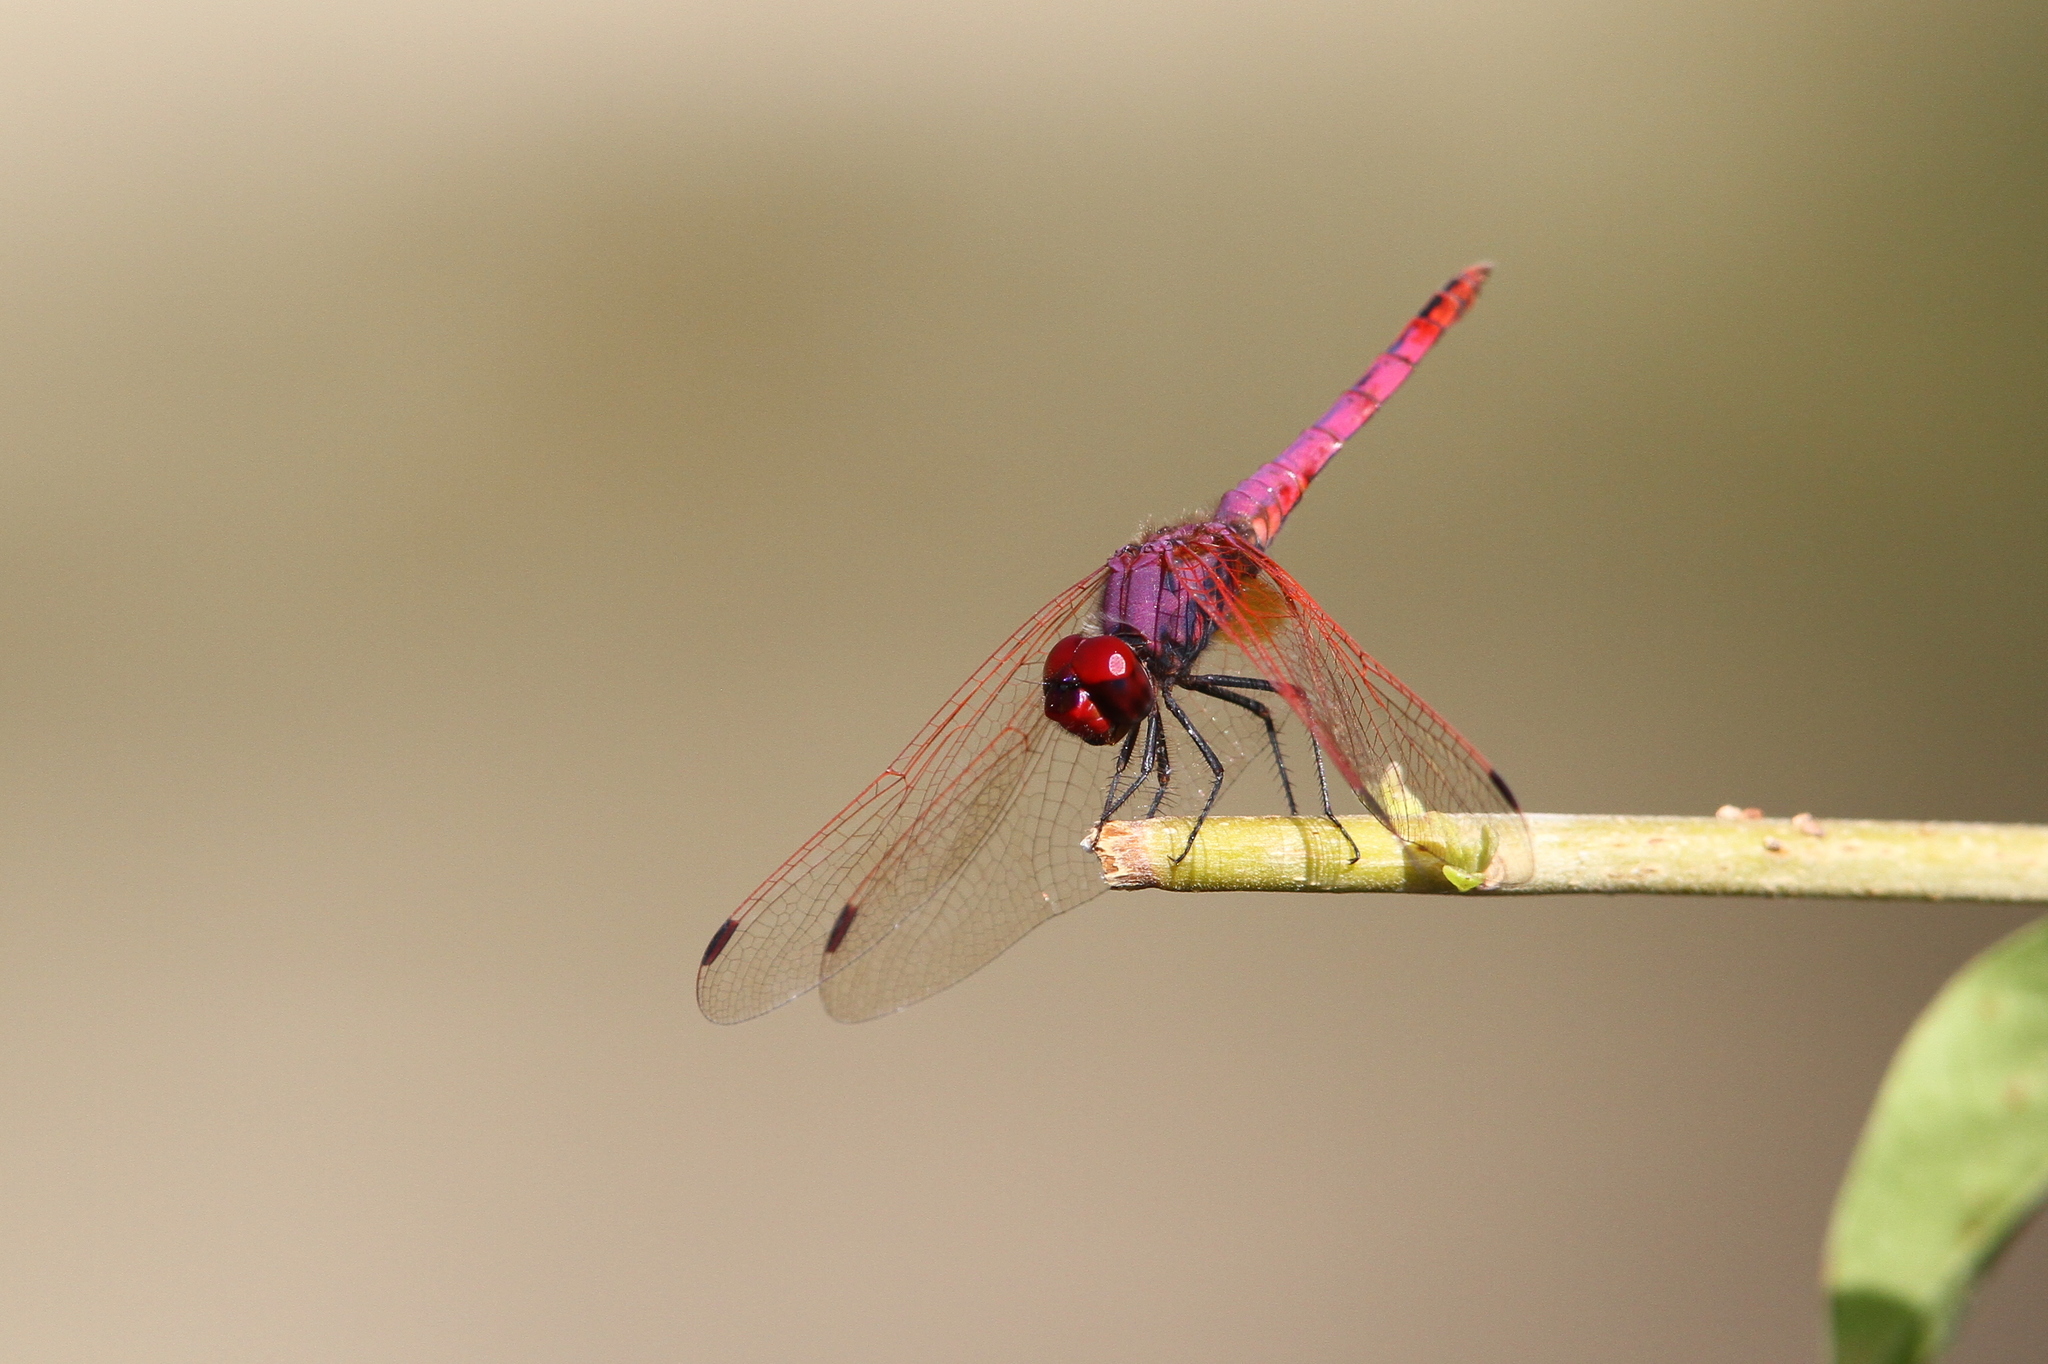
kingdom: Animalia
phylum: Arthropoda
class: Insecta
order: Odonata
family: Libellulidae
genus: Trithemis
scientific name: Trithemis annulata
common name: Violet dropwing
